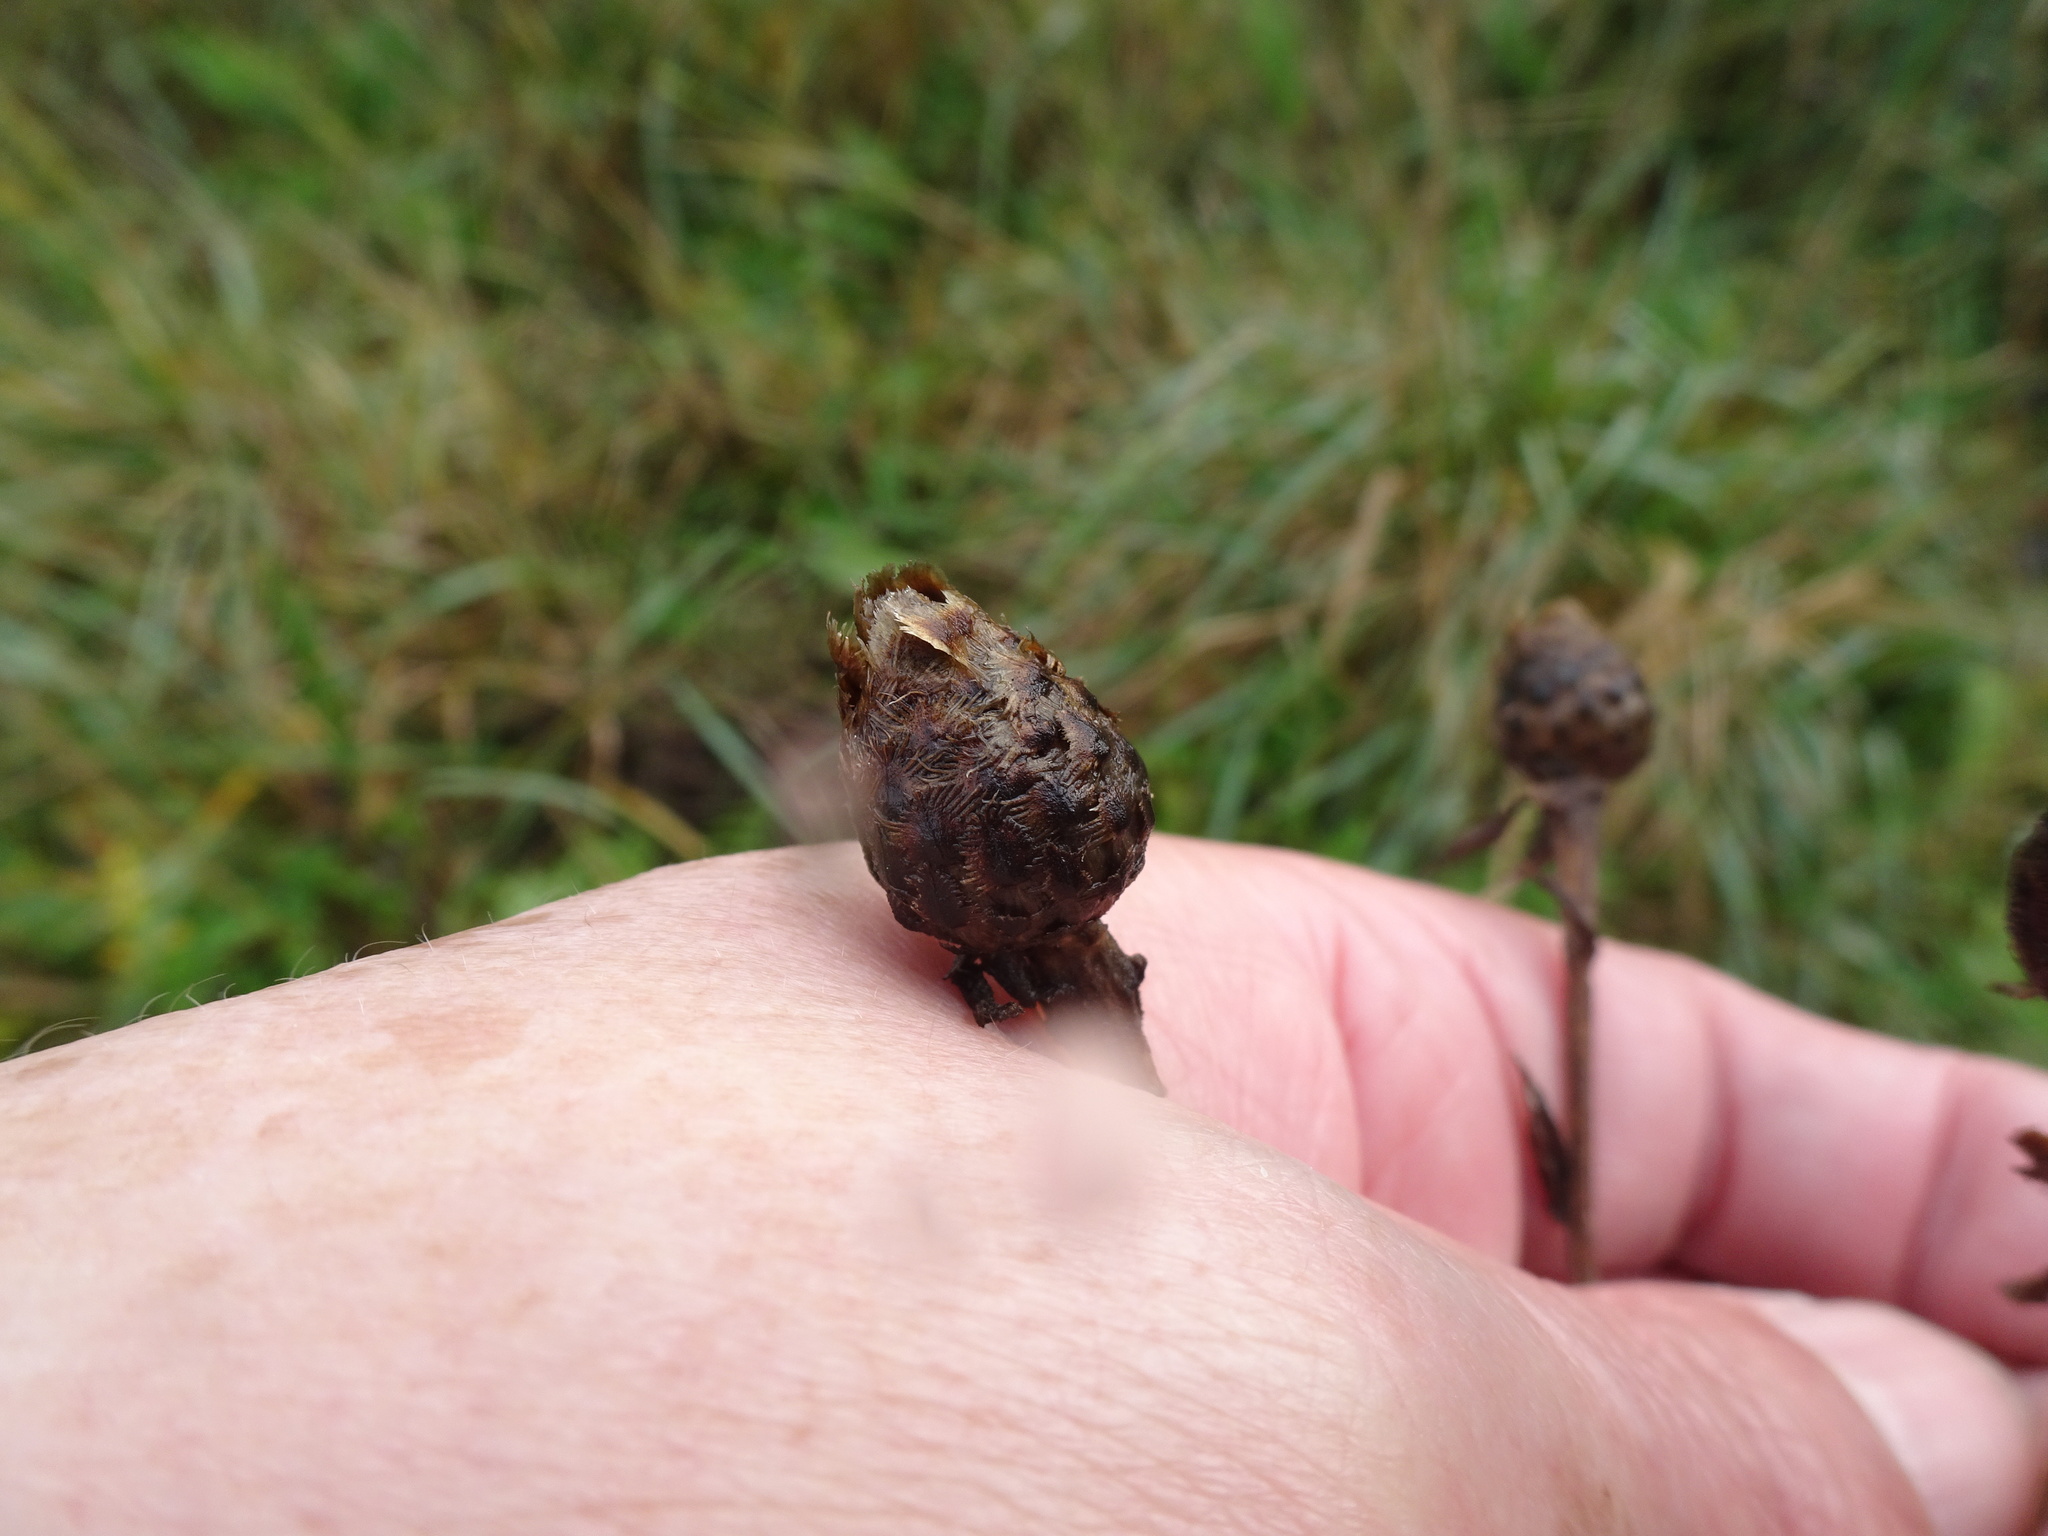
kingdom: Plantae
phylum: Tracheophyta
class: Magnoliopsida
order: Asterales
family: Asteraceae
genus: Centaurea
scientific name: Centaurea scabiosa
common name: Greater knapweed
